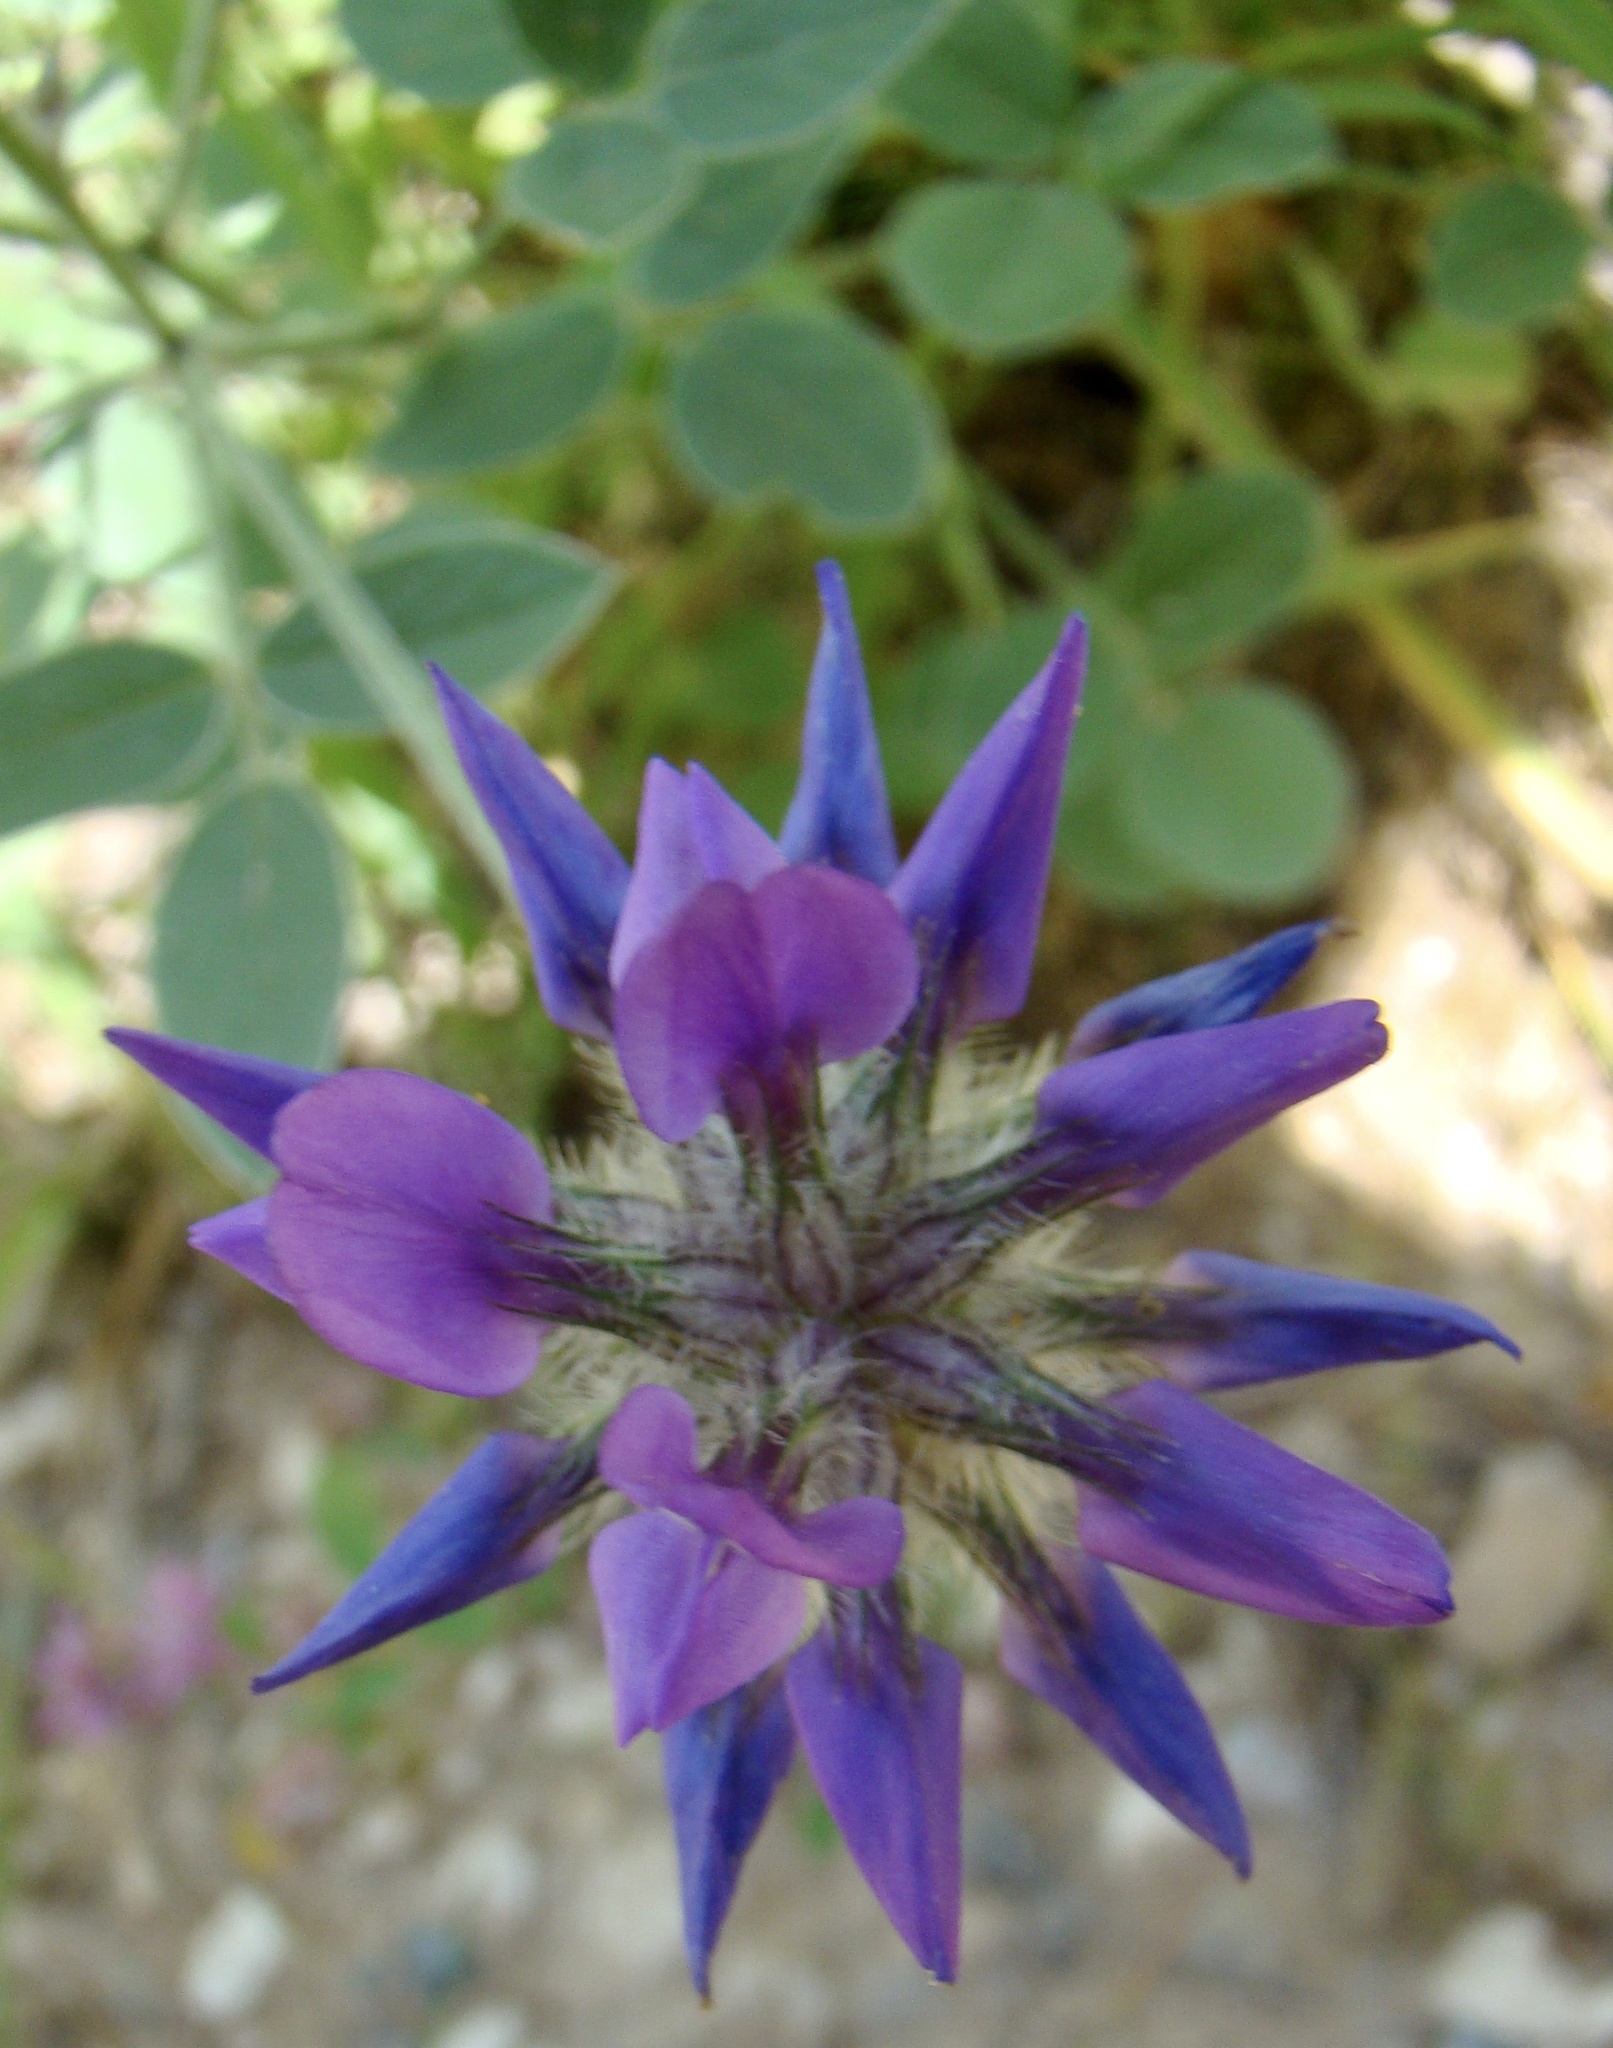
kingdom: Plantae
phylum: Tracheophyta
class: Magnoliopsida
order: Fabales
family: Fabaceae
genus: Bituminaria
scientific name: Bituminaria bituminosa
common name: Arabian pea
